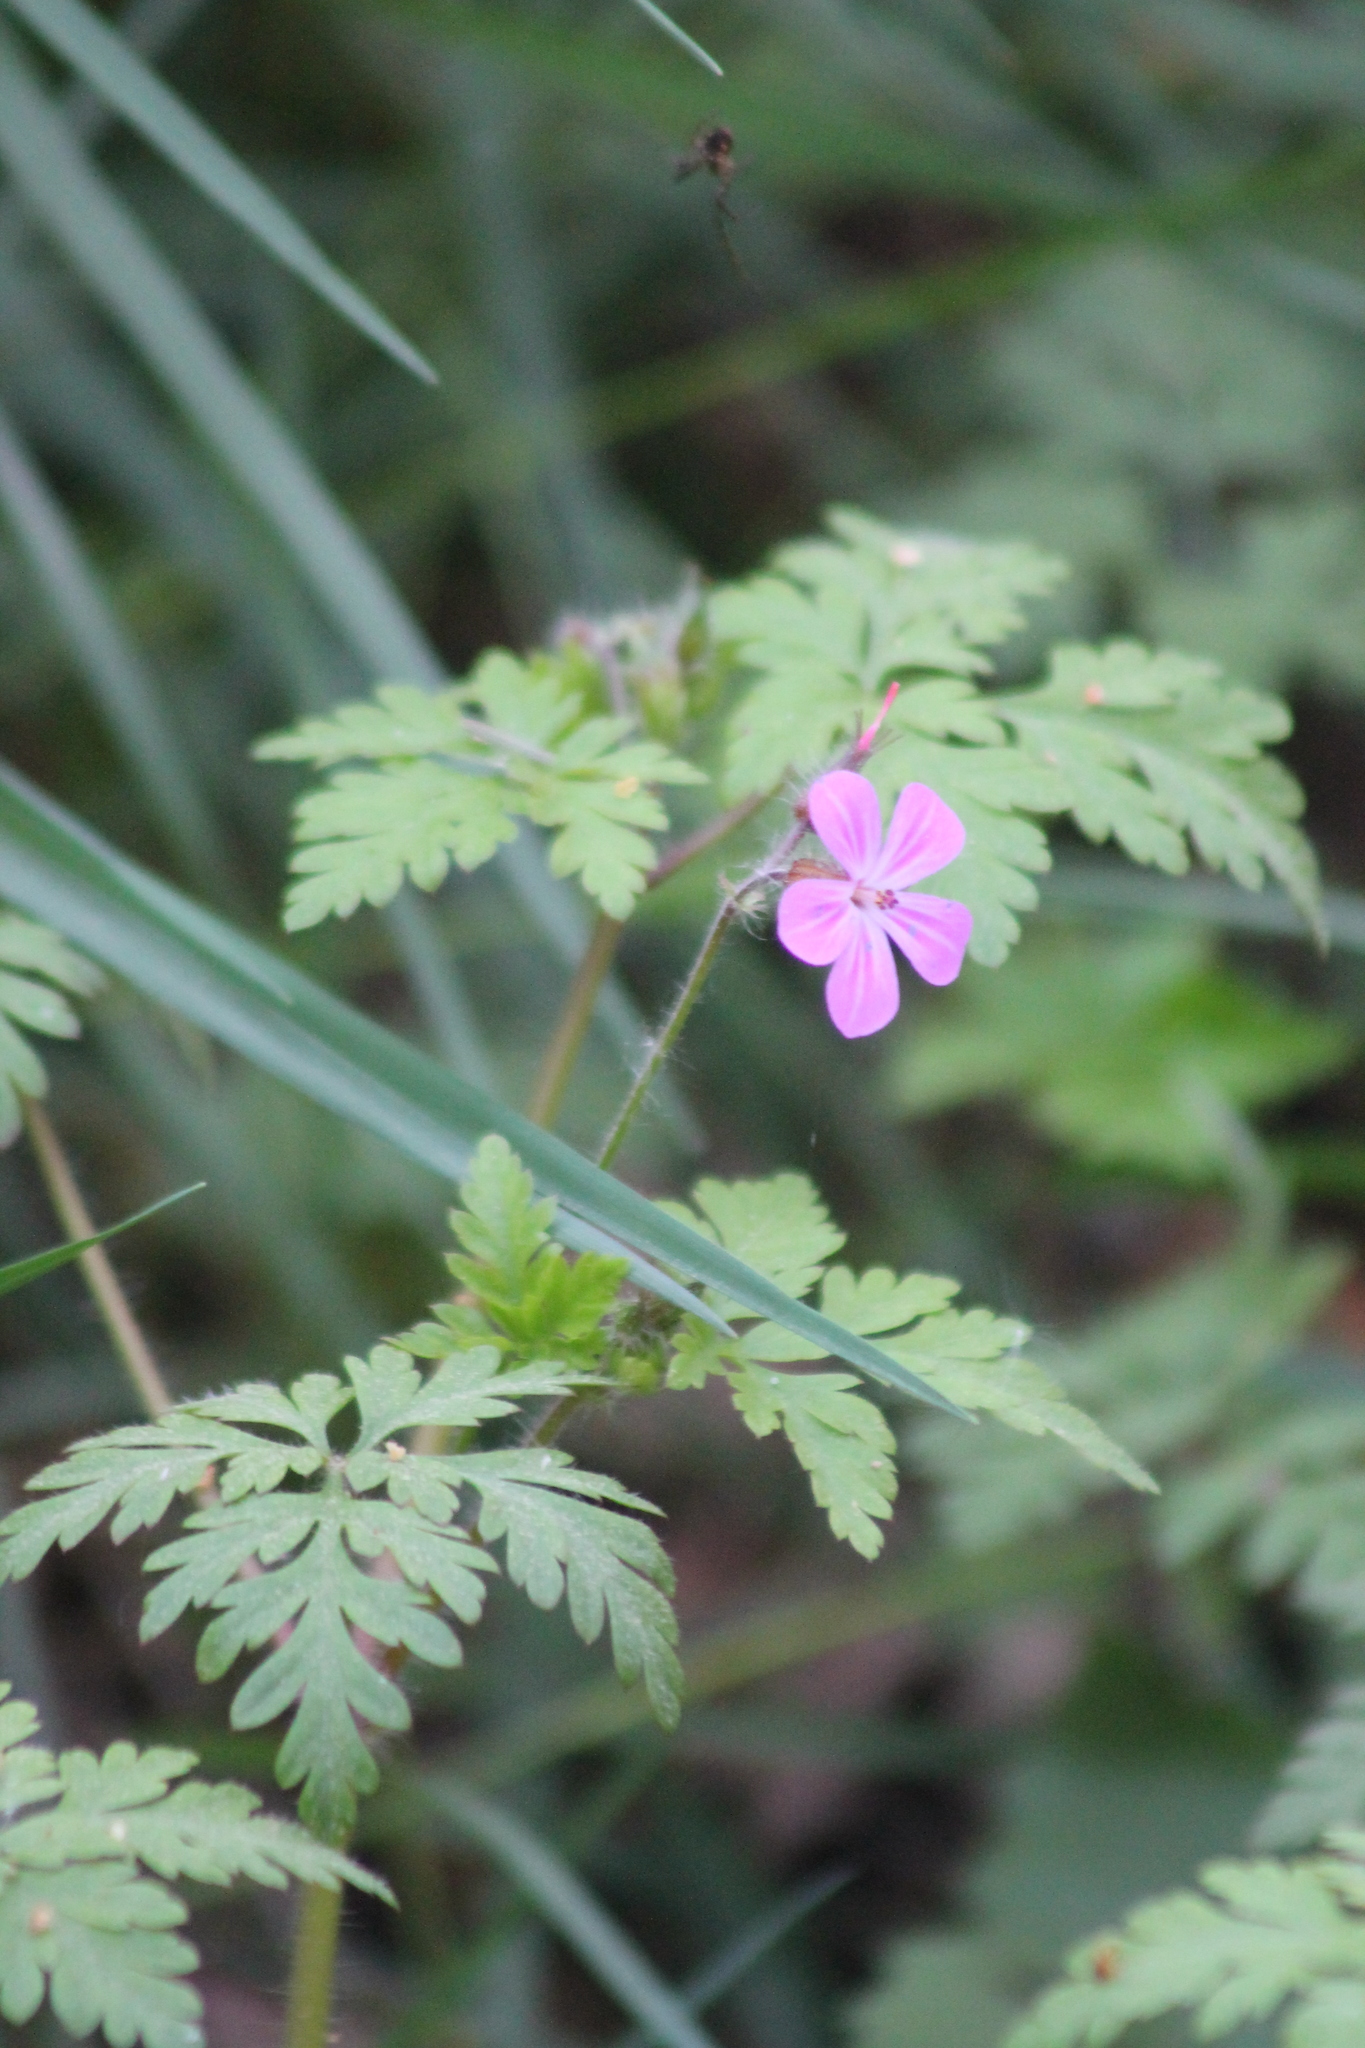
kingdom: Plantae
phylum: Tracheophyta
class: Magnoliopsida
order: Geraniales
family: Geraniaceae
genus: Geranium
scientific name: Geranium robertianum
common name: Herb-robert
